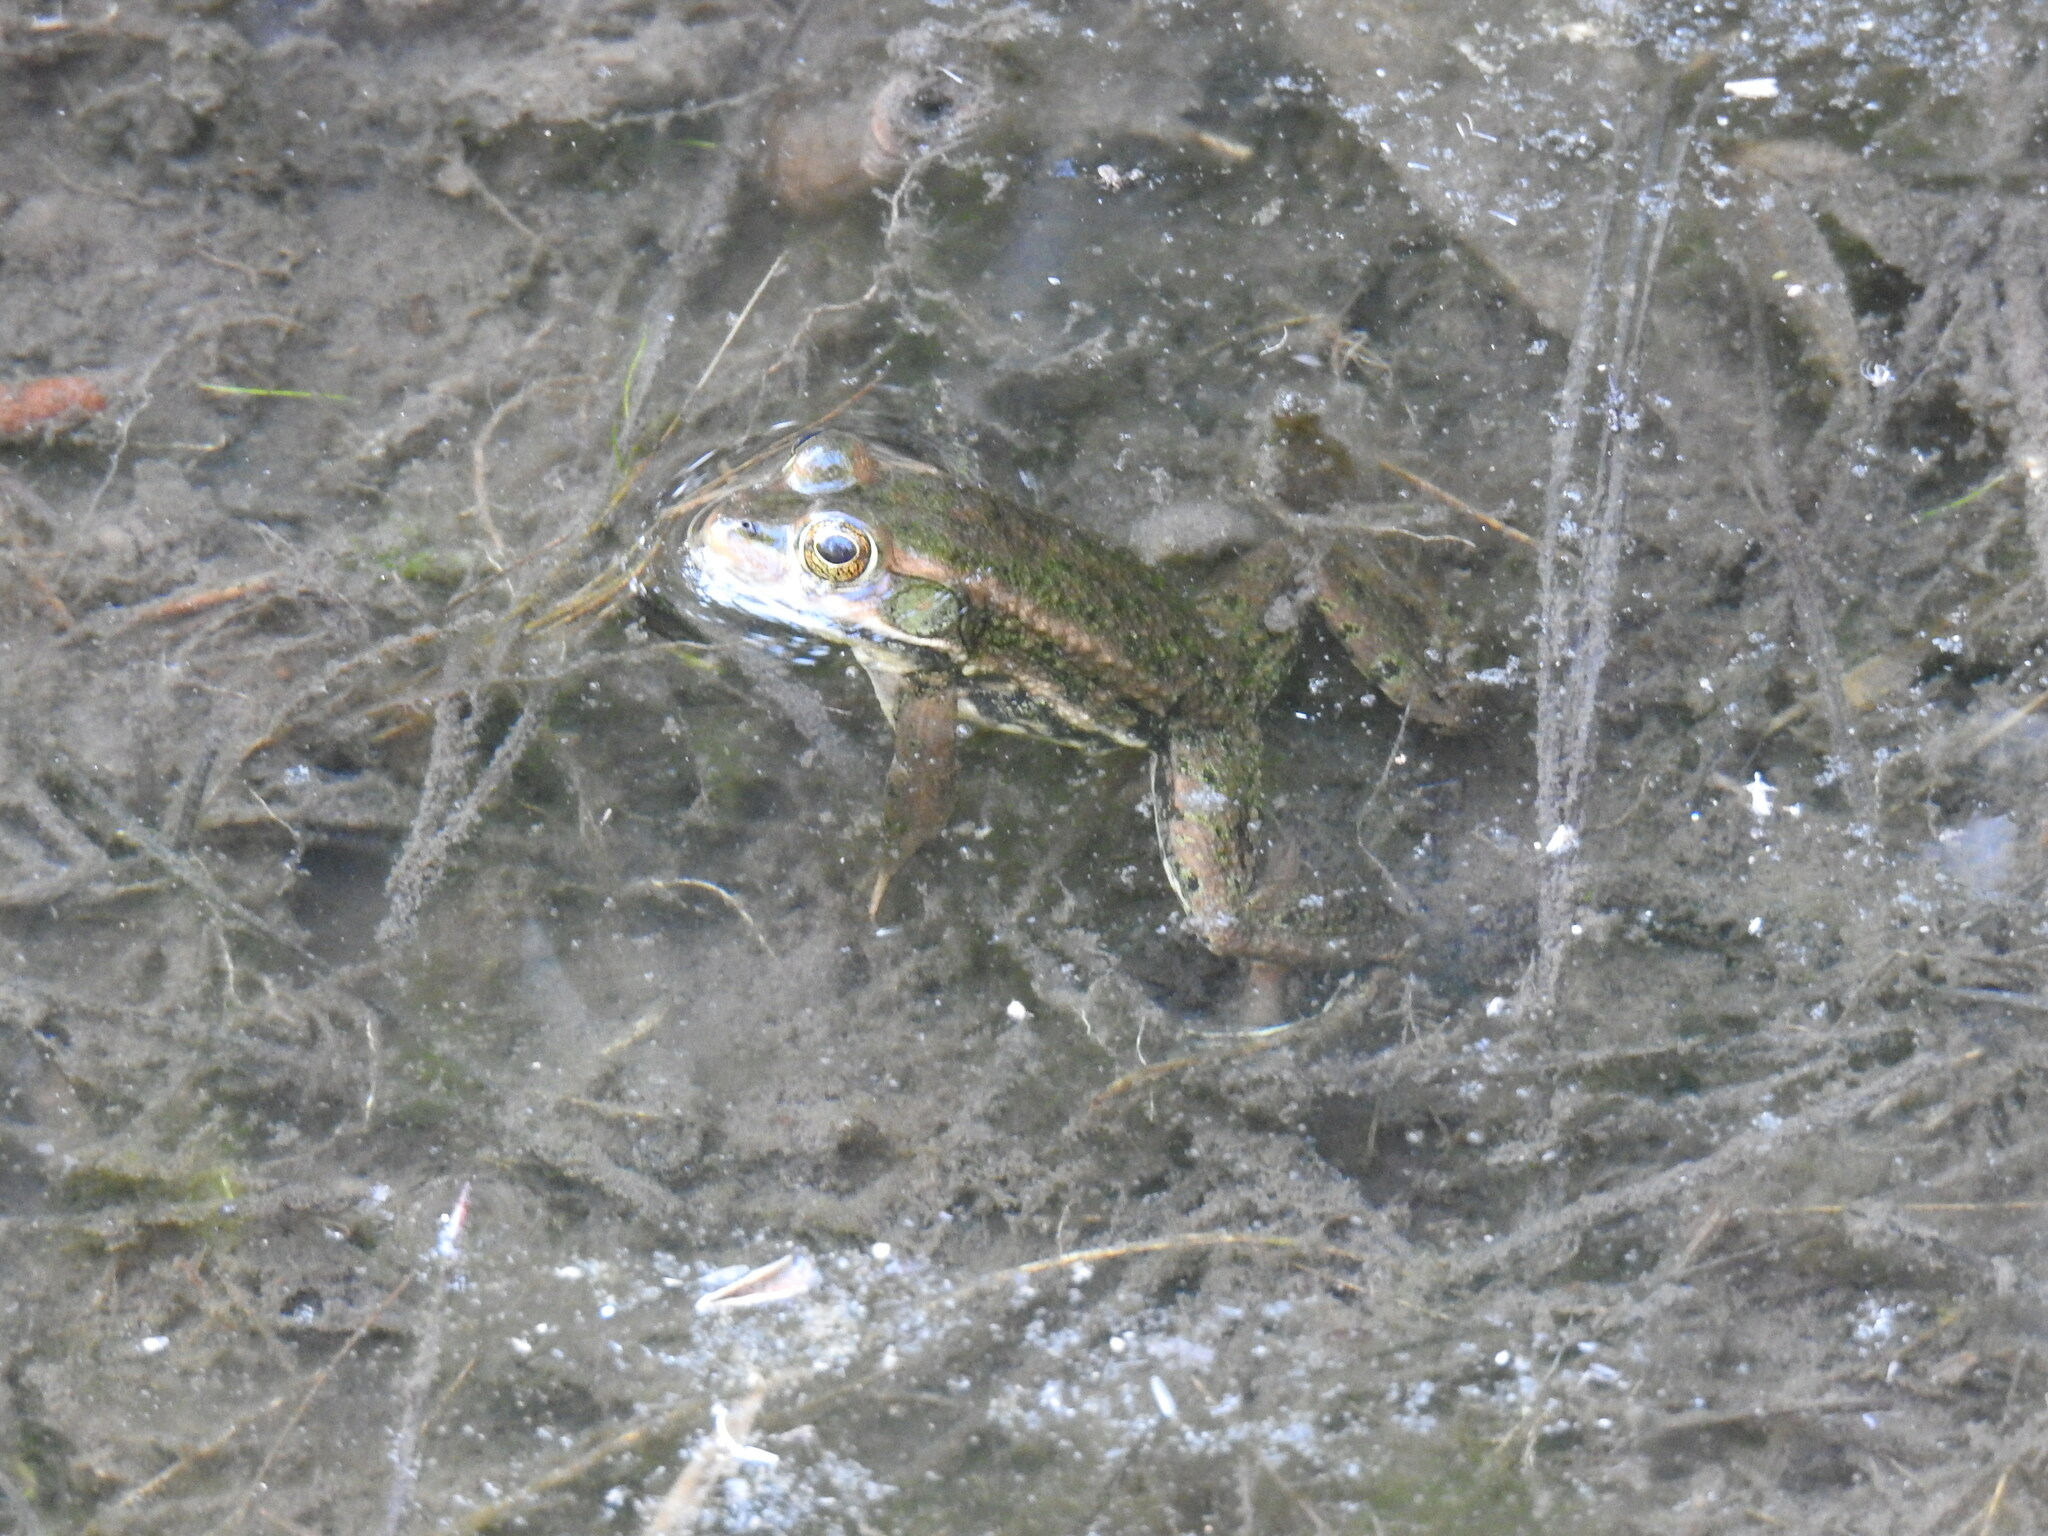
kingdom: Animalia
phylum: Chordata
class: Amphibia
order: Anura
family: Ranidae
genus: Lithobates
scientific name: Lithobates virgatipes
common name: Carpenter frog
